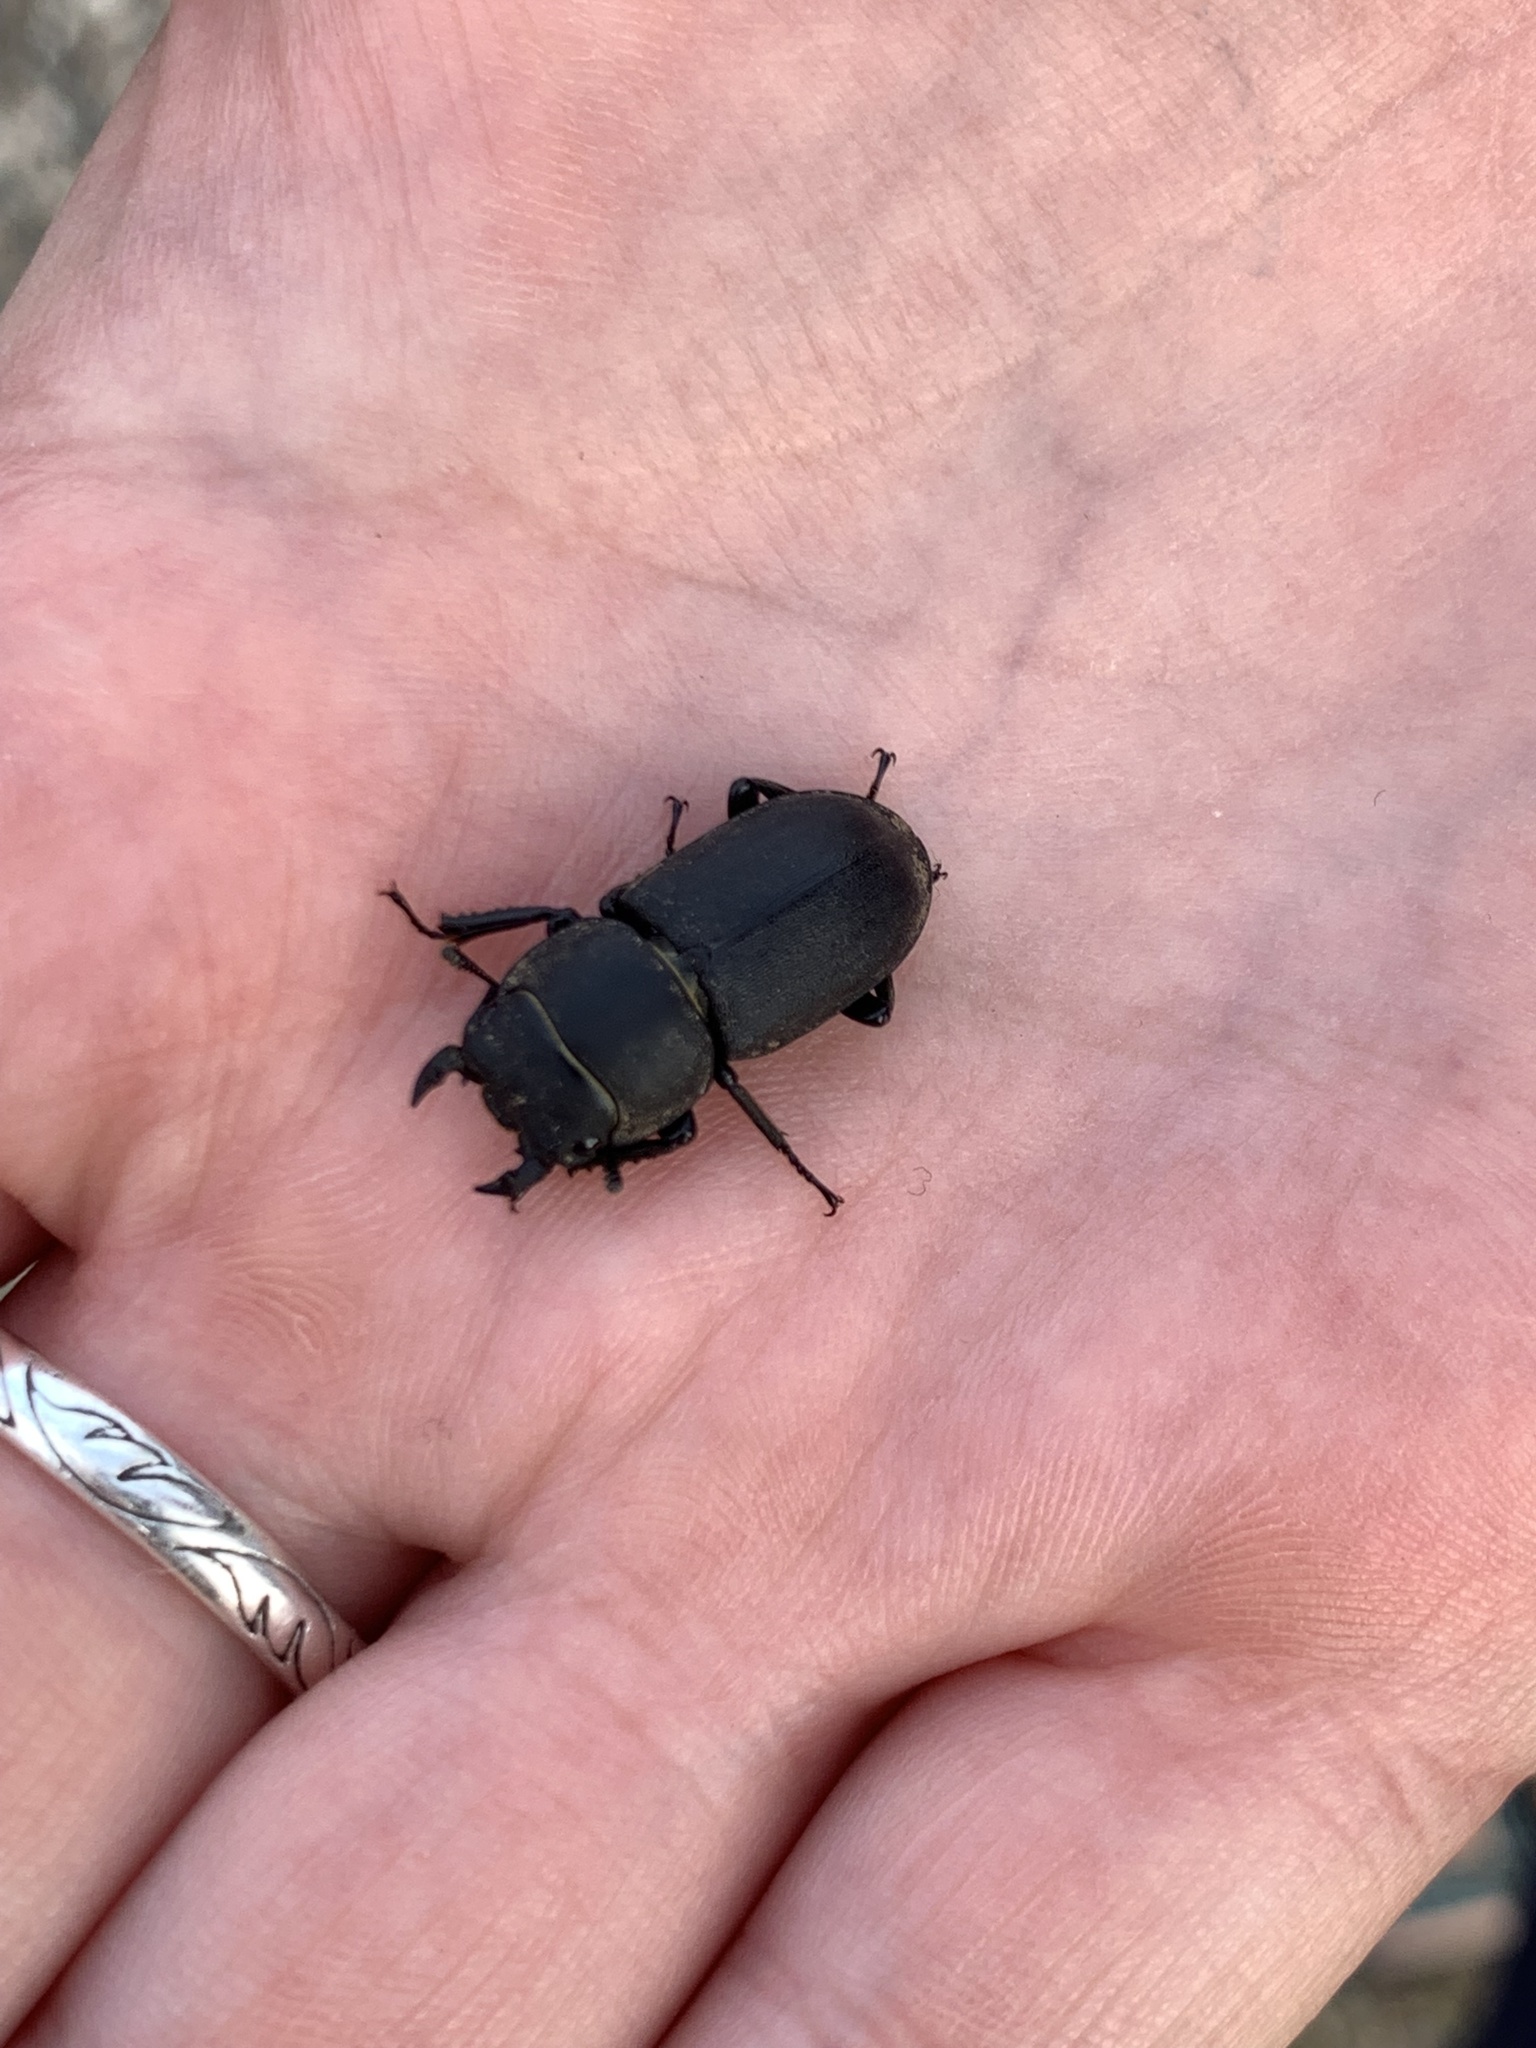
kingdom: Animalia
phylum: Arthropoda
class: Insecta
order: Coleoptera
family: Lucanidae
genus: Dorcus
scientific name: Dorcus parallelipipedus
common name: Lesser stag beetle
